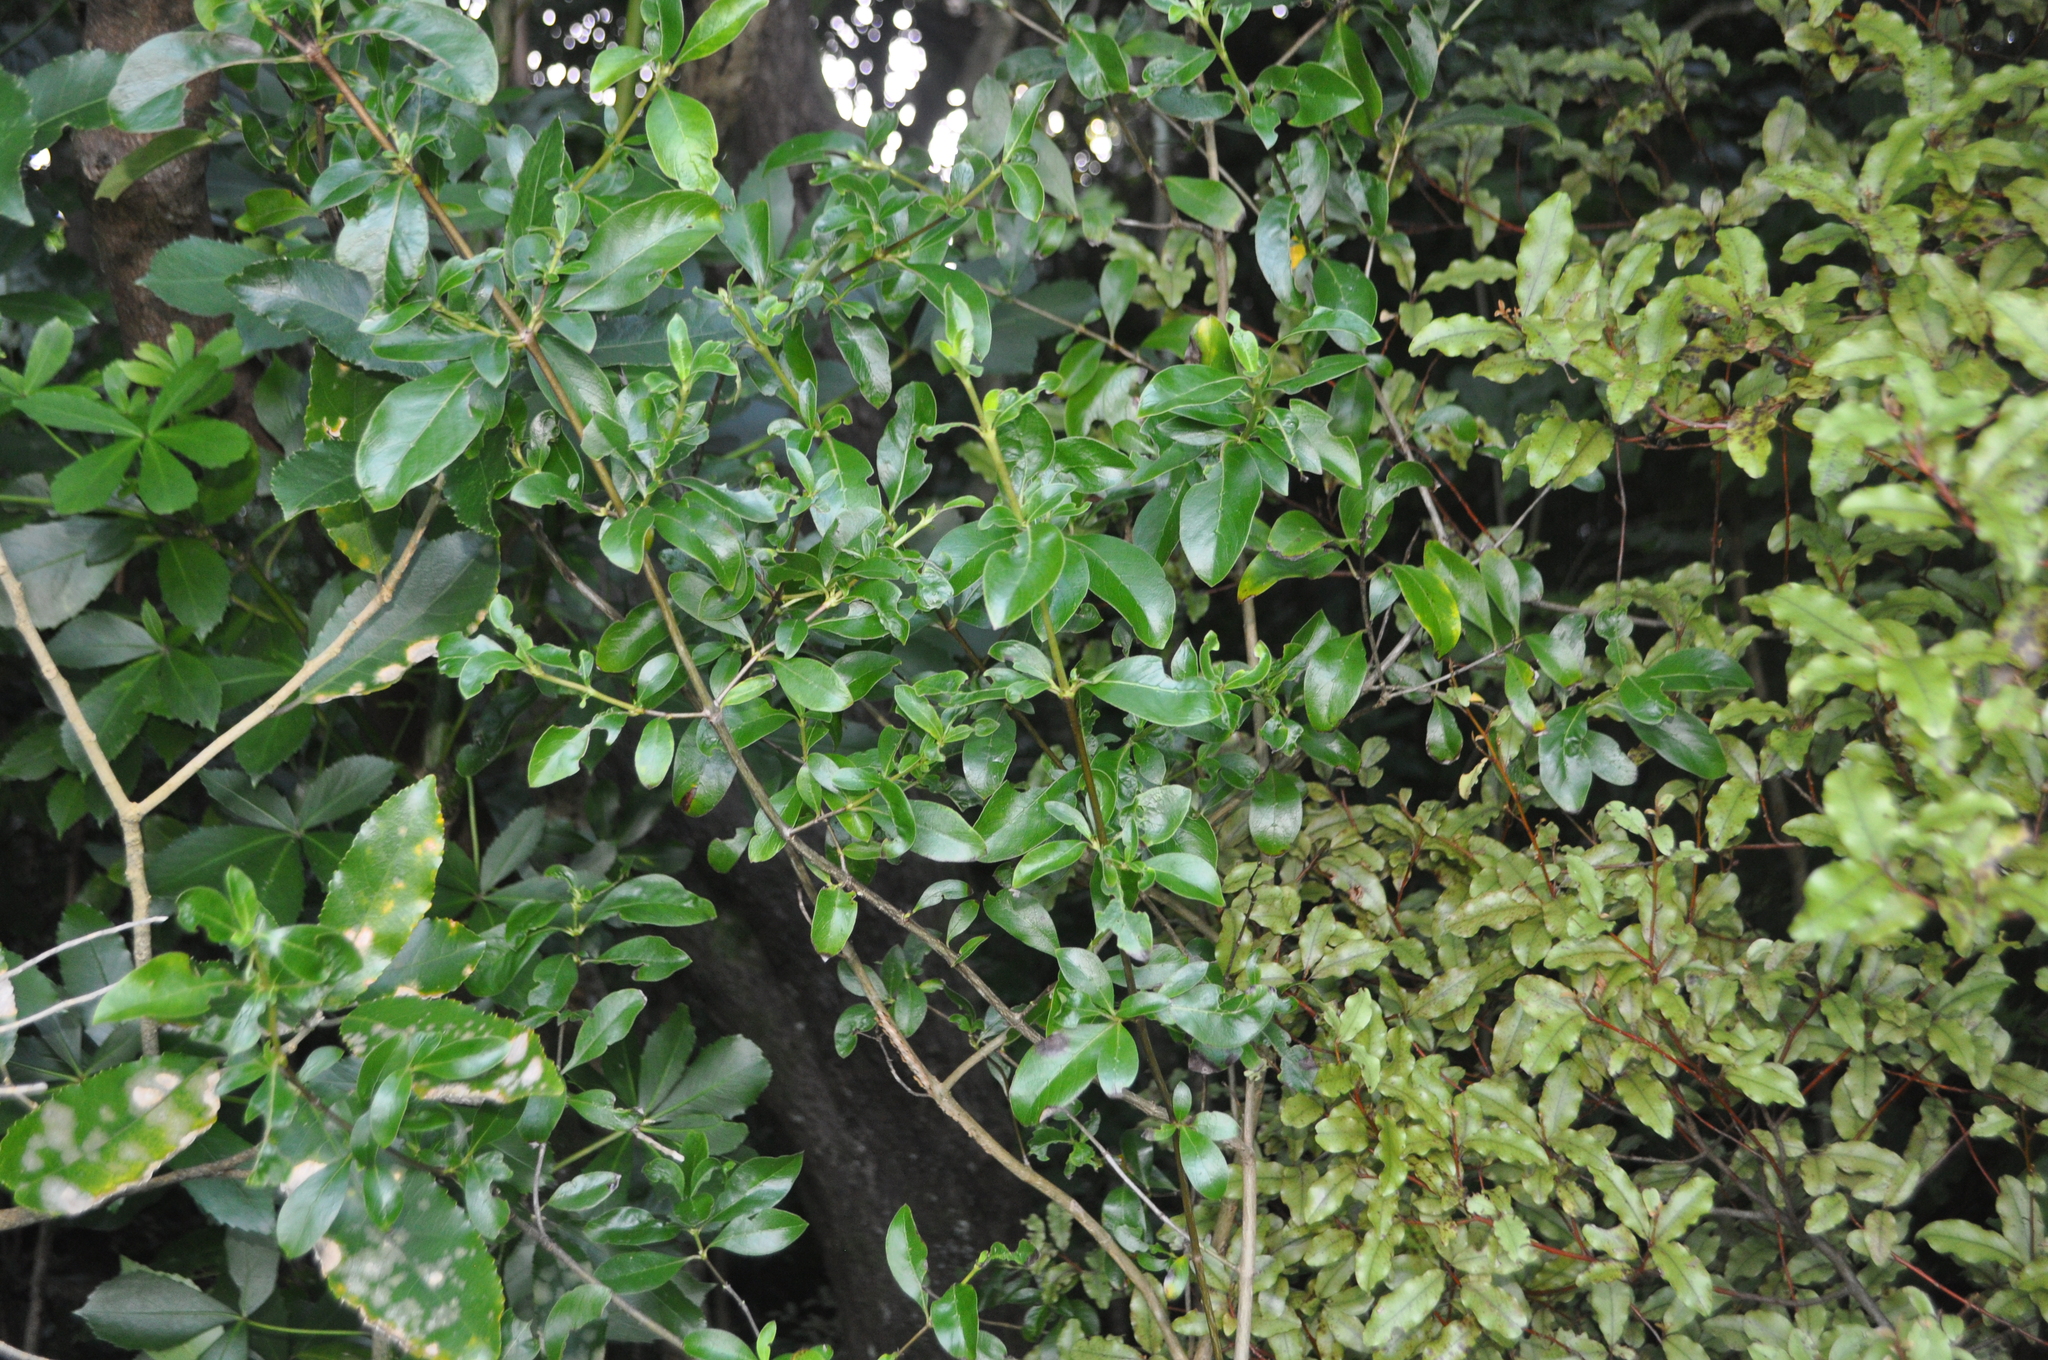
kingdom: Plantae
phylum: Tracheophyta
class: Magnoliopsida
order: Gentianales
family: Rubiaceae
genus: Coprosma
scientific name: Coprosma robusta
